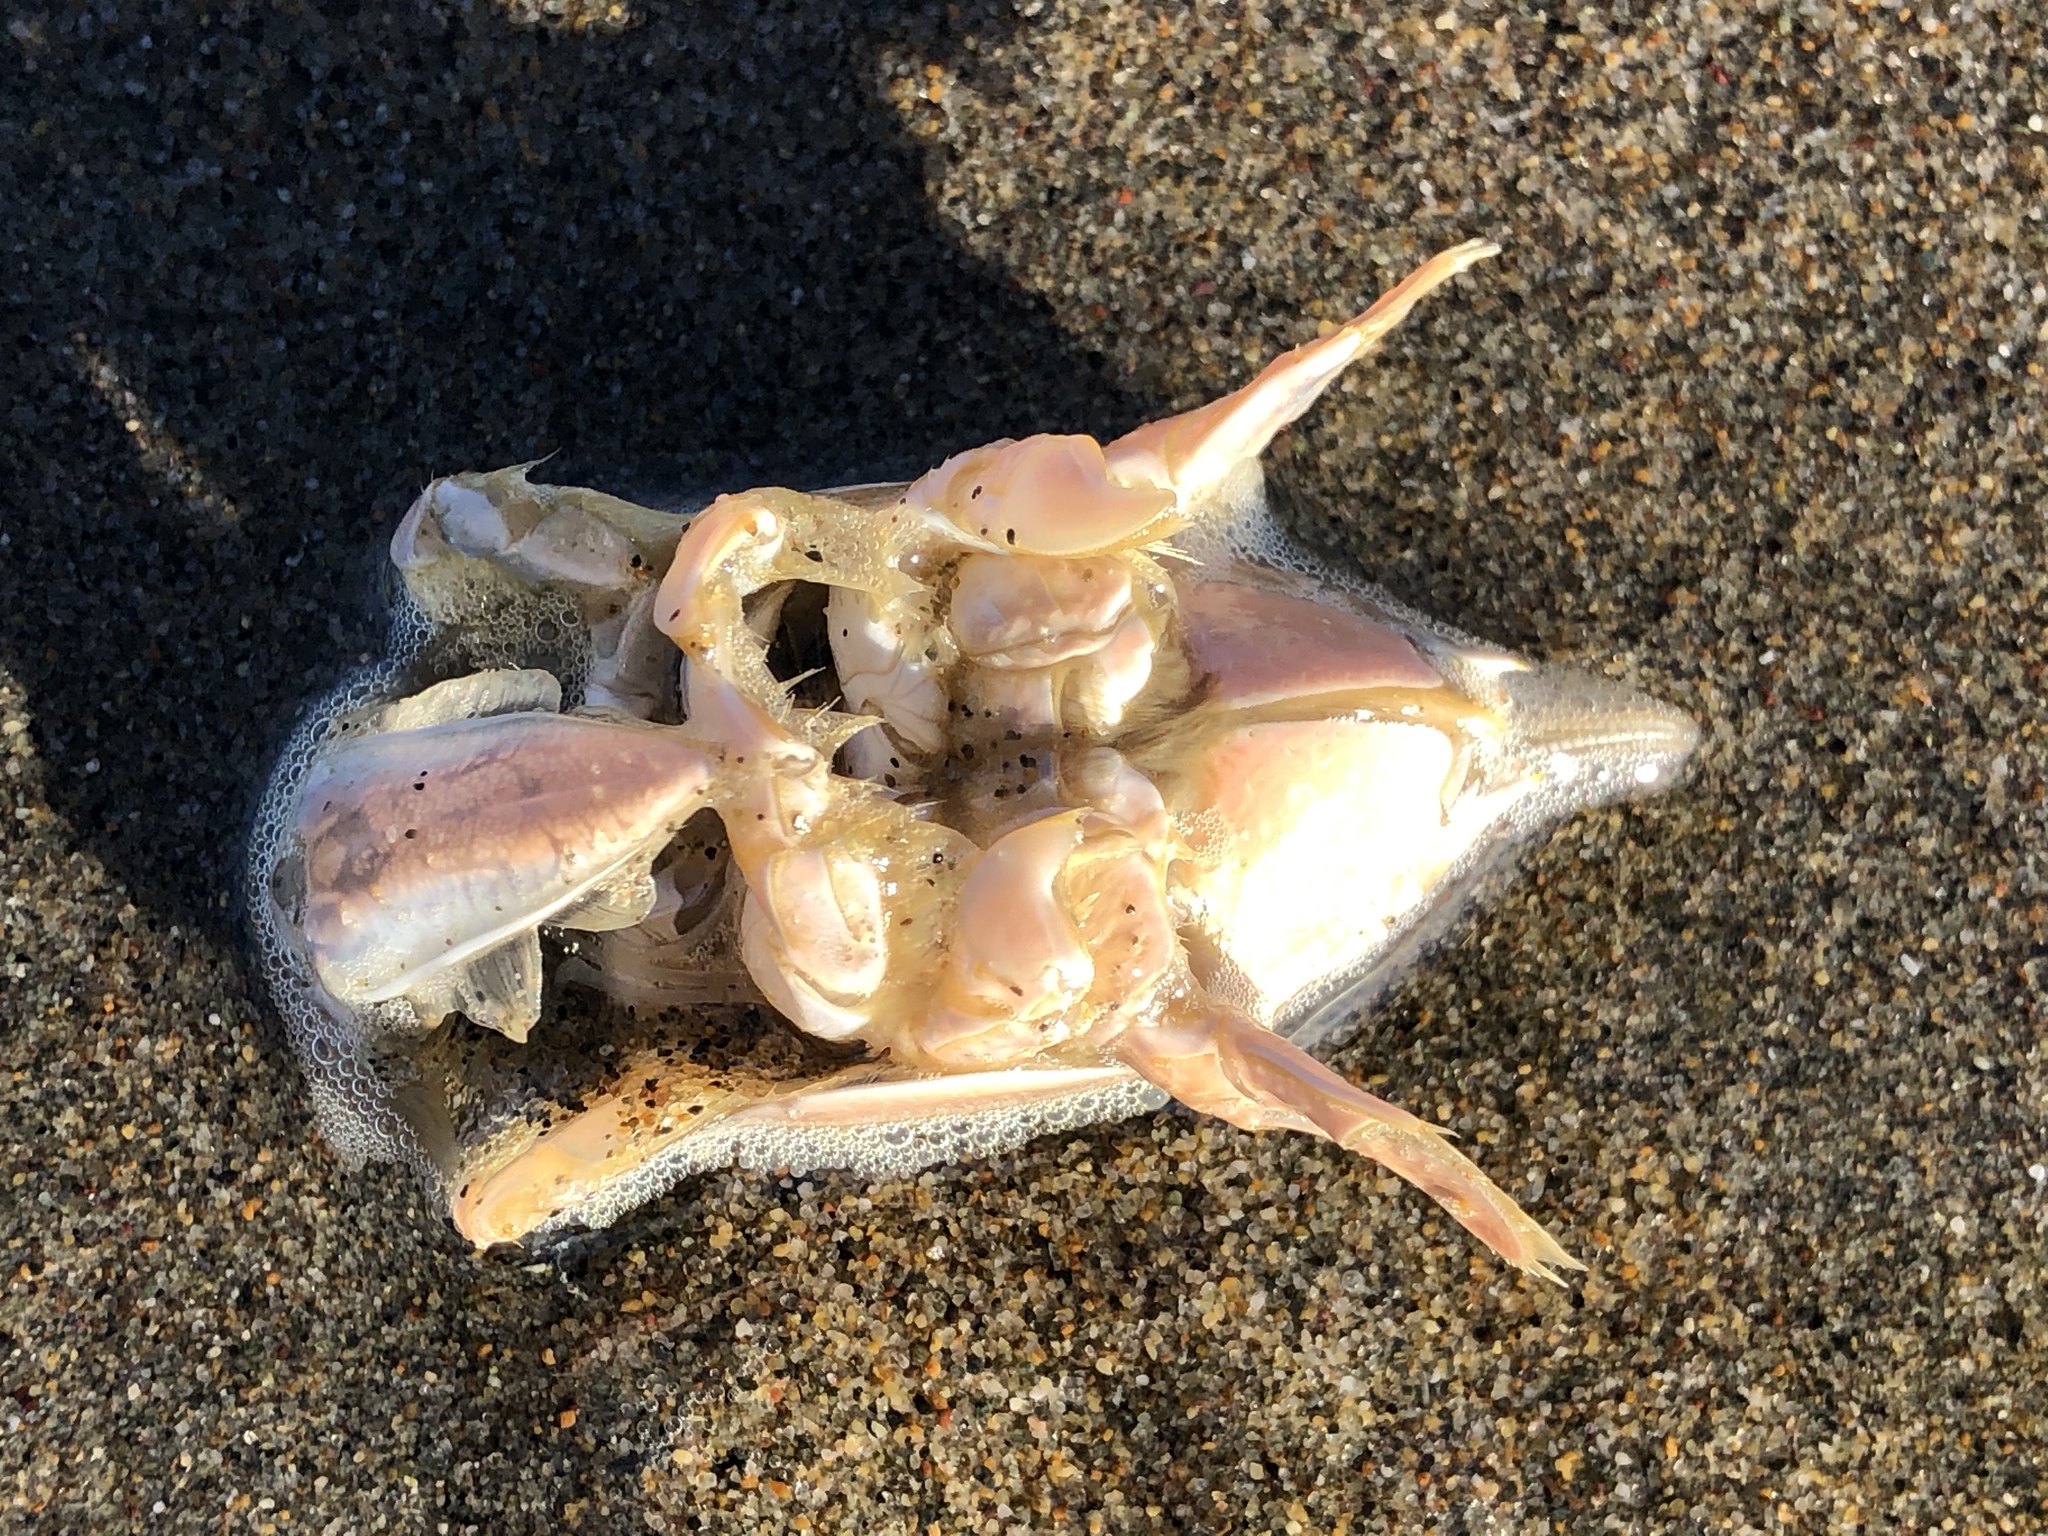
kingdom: Animalia
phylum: Arthropoda
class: Malacostraca
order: Decapoda
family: Hippidae
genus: Emerita
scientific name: Emerita analoga
